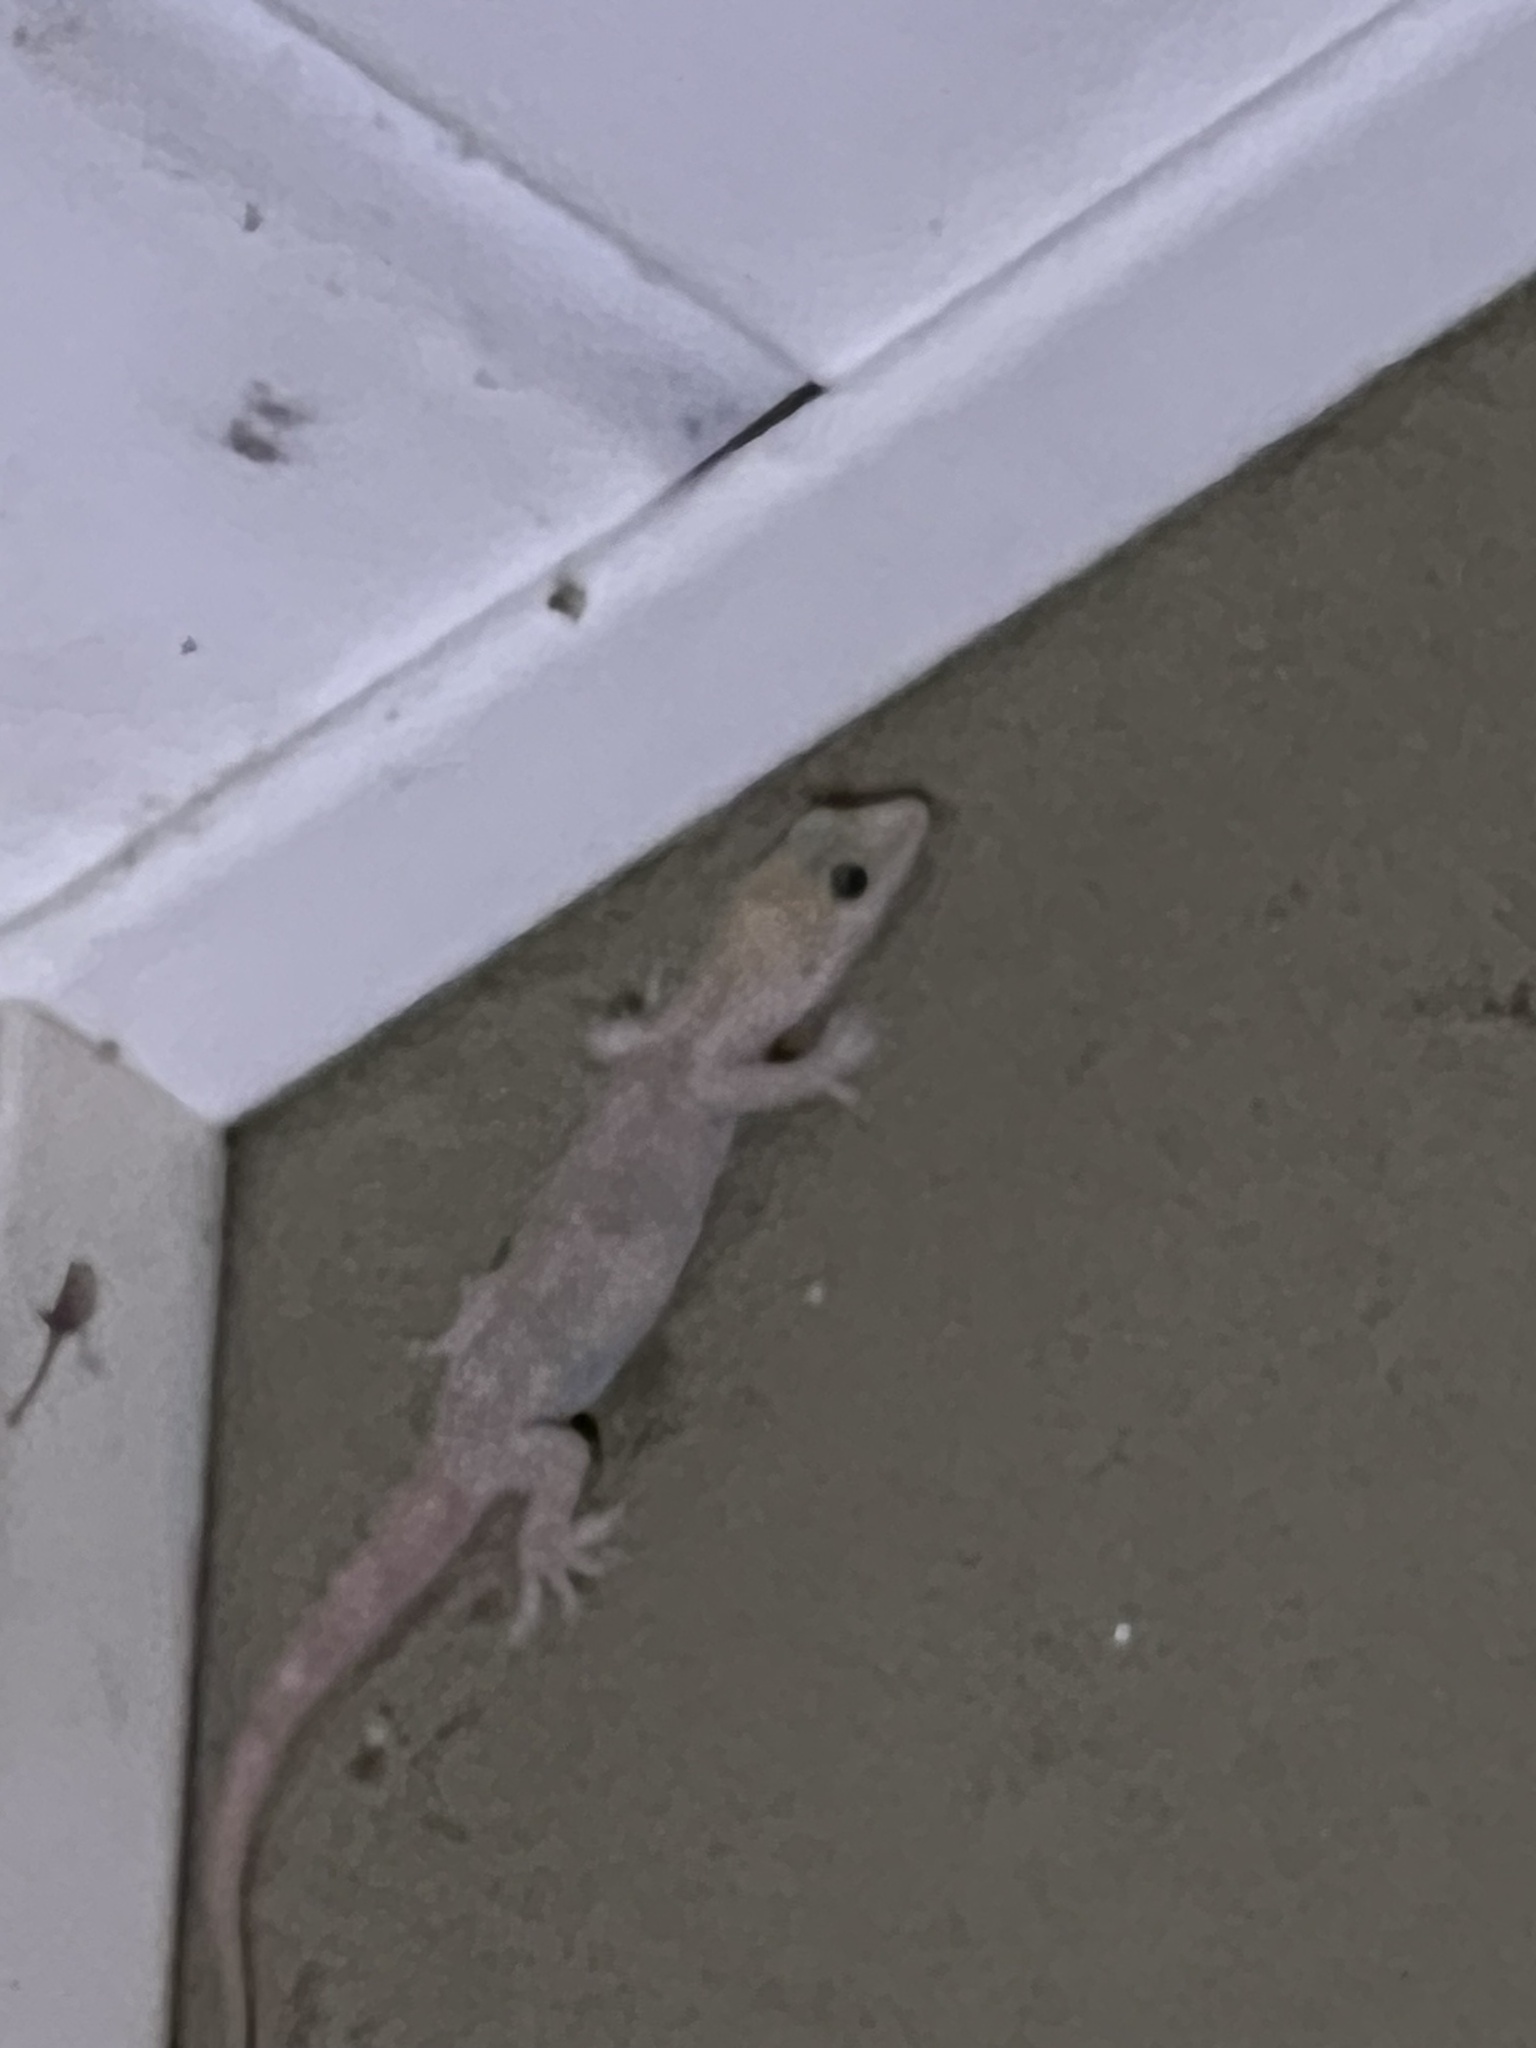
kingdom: Animalia
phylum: Chordata
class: Squamata
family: Gekkonidae
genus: Hemidactylus
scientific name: Hemidactylus turcicus
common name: Turkish gecko
